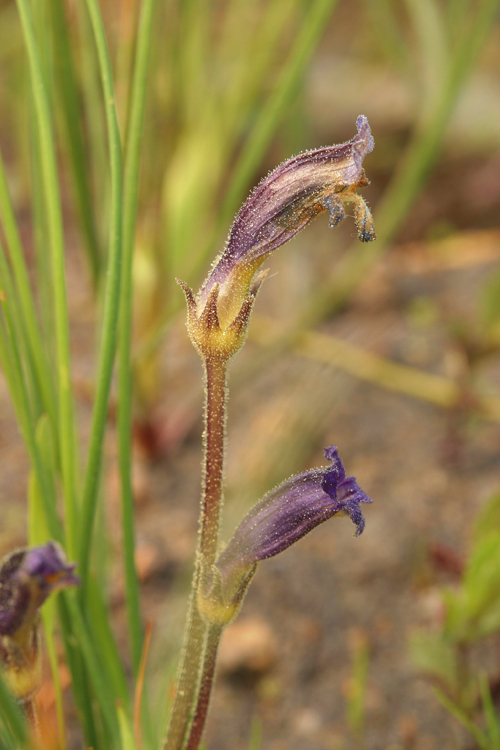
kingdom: Plantae
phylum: Tracheophyta
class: Magnoliopsida
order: Lamiales
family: Orobanchaceae
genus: Aphyllon
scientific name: Aphyllon uniflorum
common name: One-flowered broomrape
